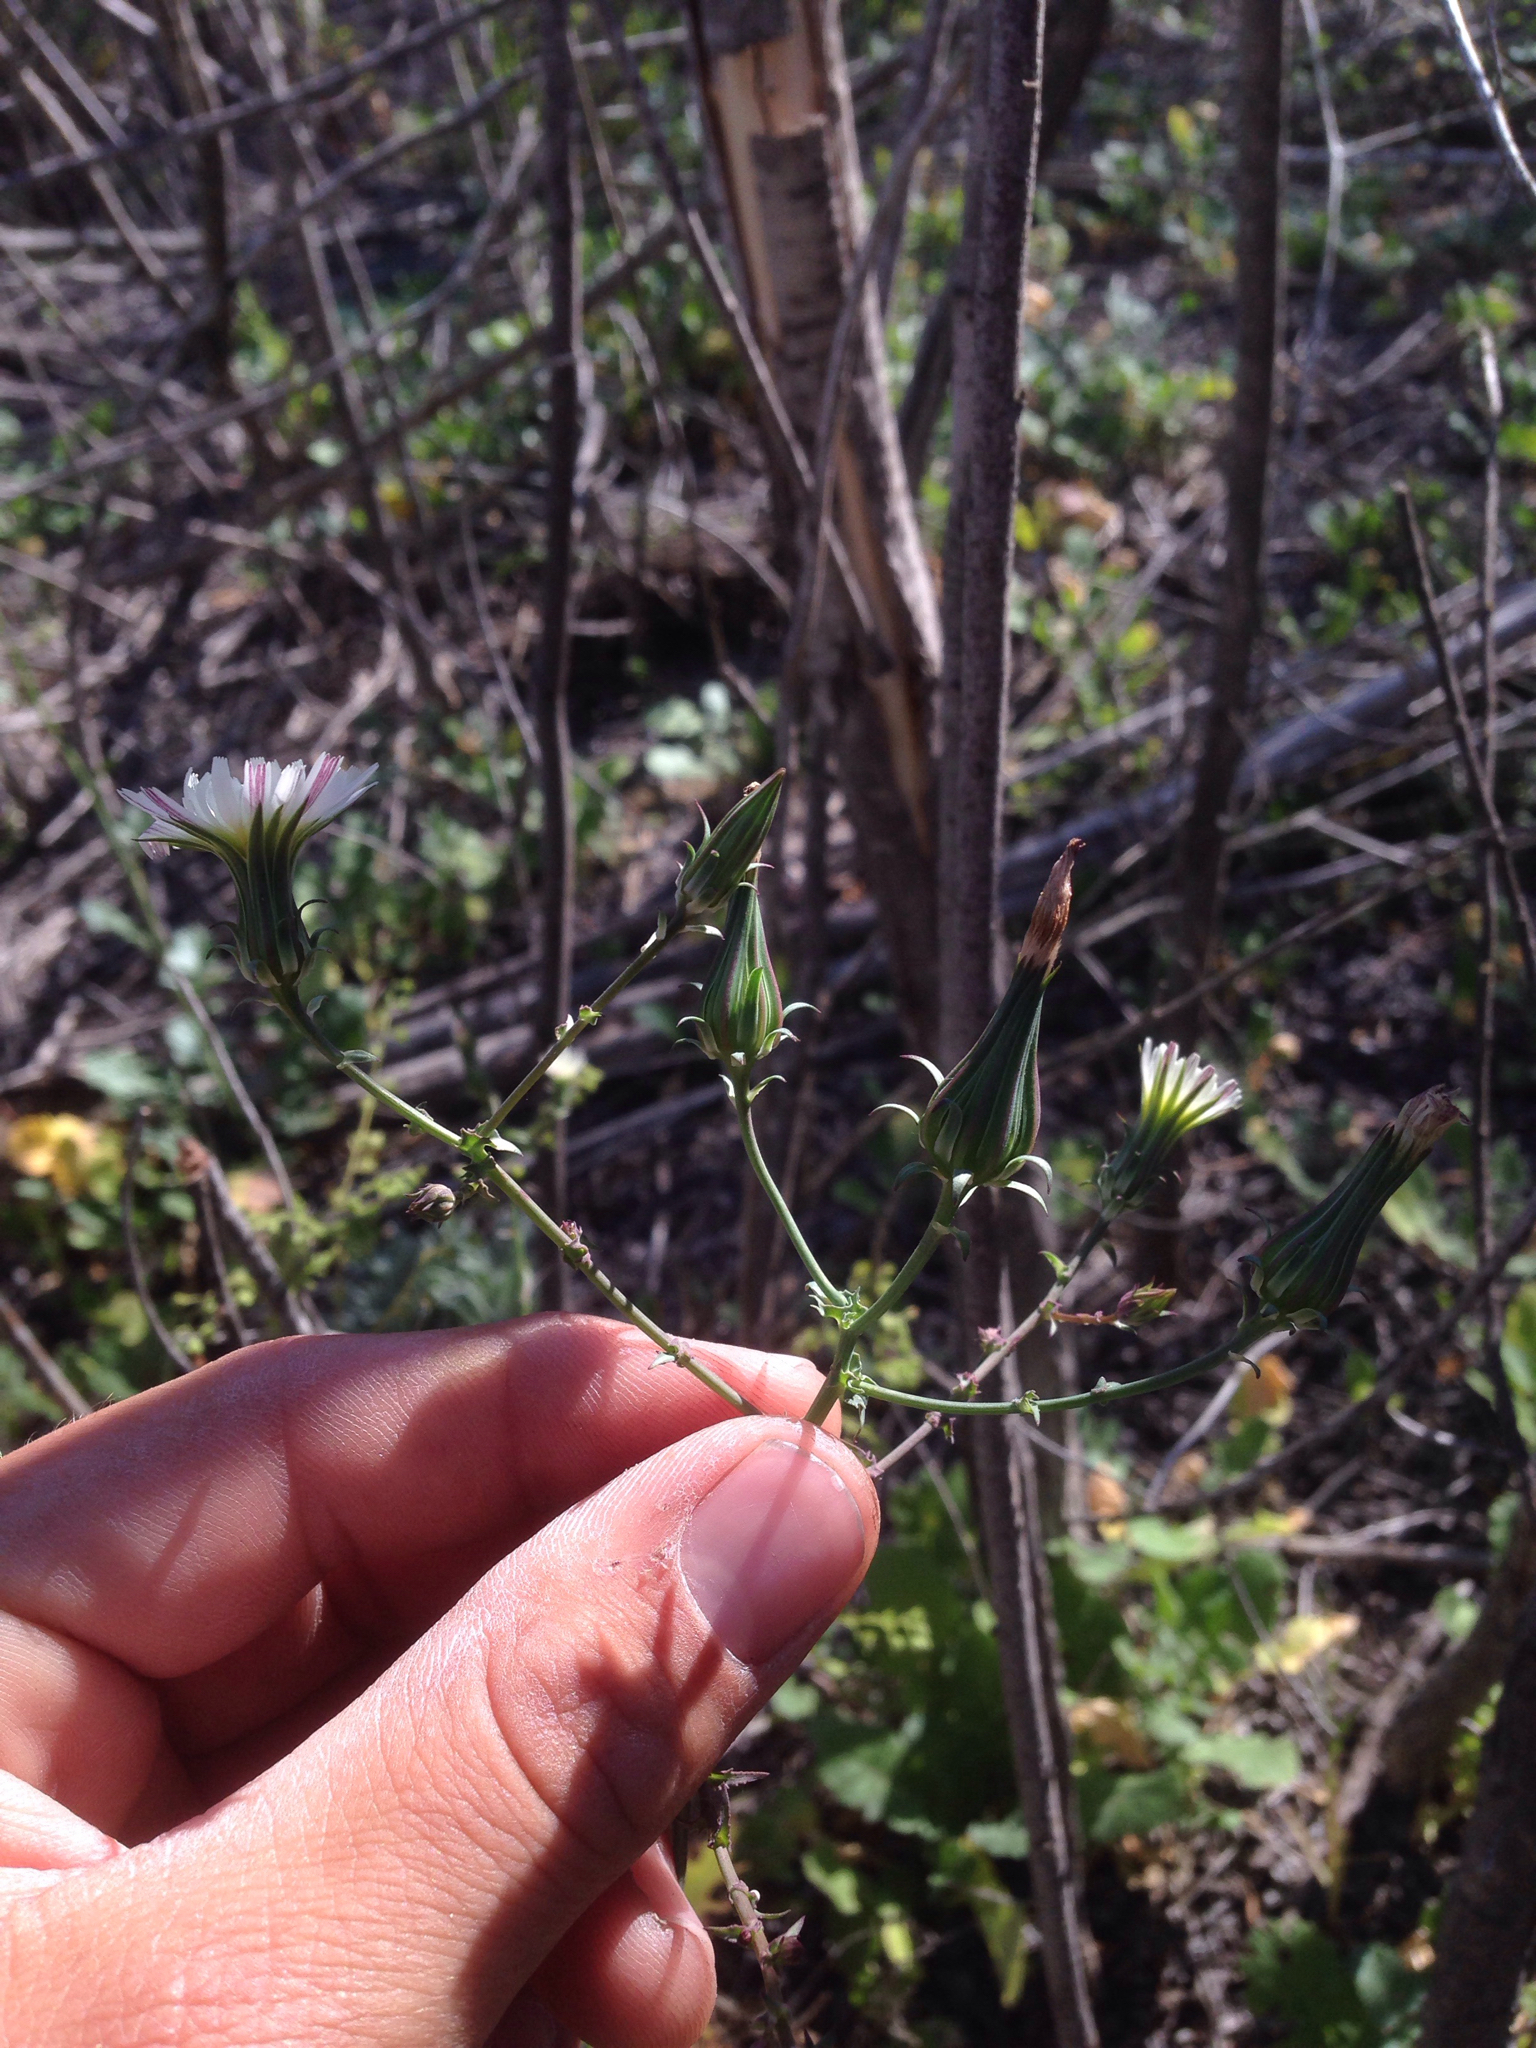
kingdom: Plantae
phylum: Tracheophyta
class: Magnoliopsida
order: Asterales
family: Asteraceae
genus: Rafinesquia
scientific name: Rafinesquia californica
